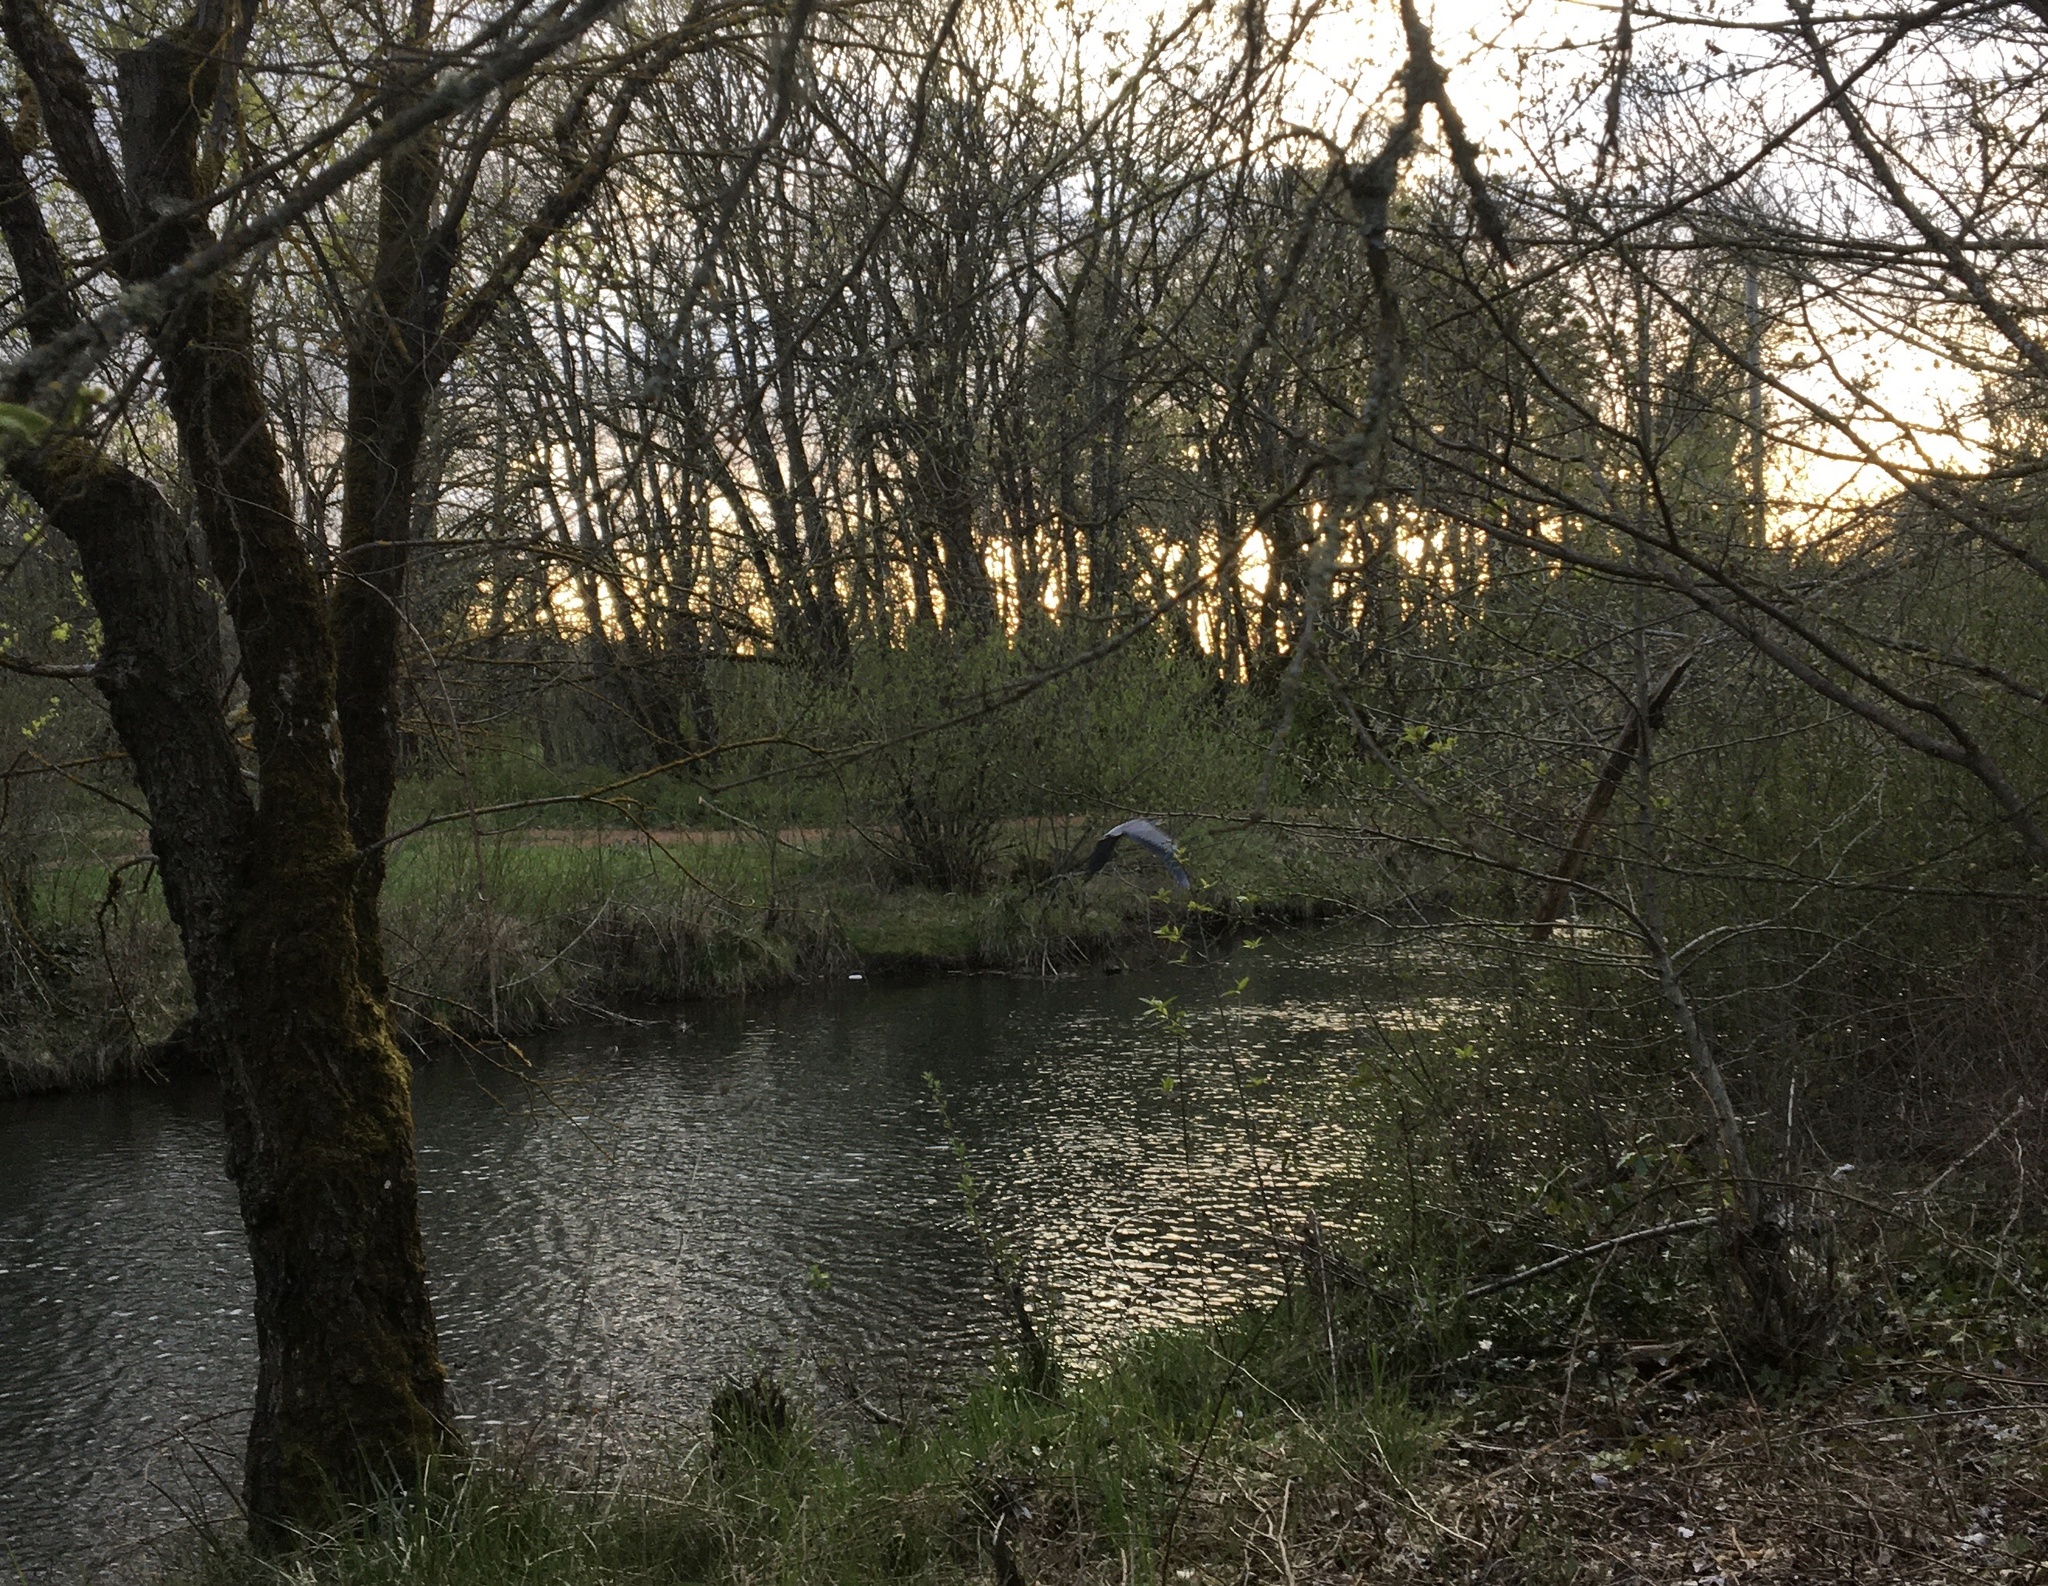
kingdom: Animalia
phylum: Chordata
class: Aves
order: Pelecaniformes
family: Ardeidae
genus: Ardea
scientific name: Ardea herodias
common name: Great blue heron
